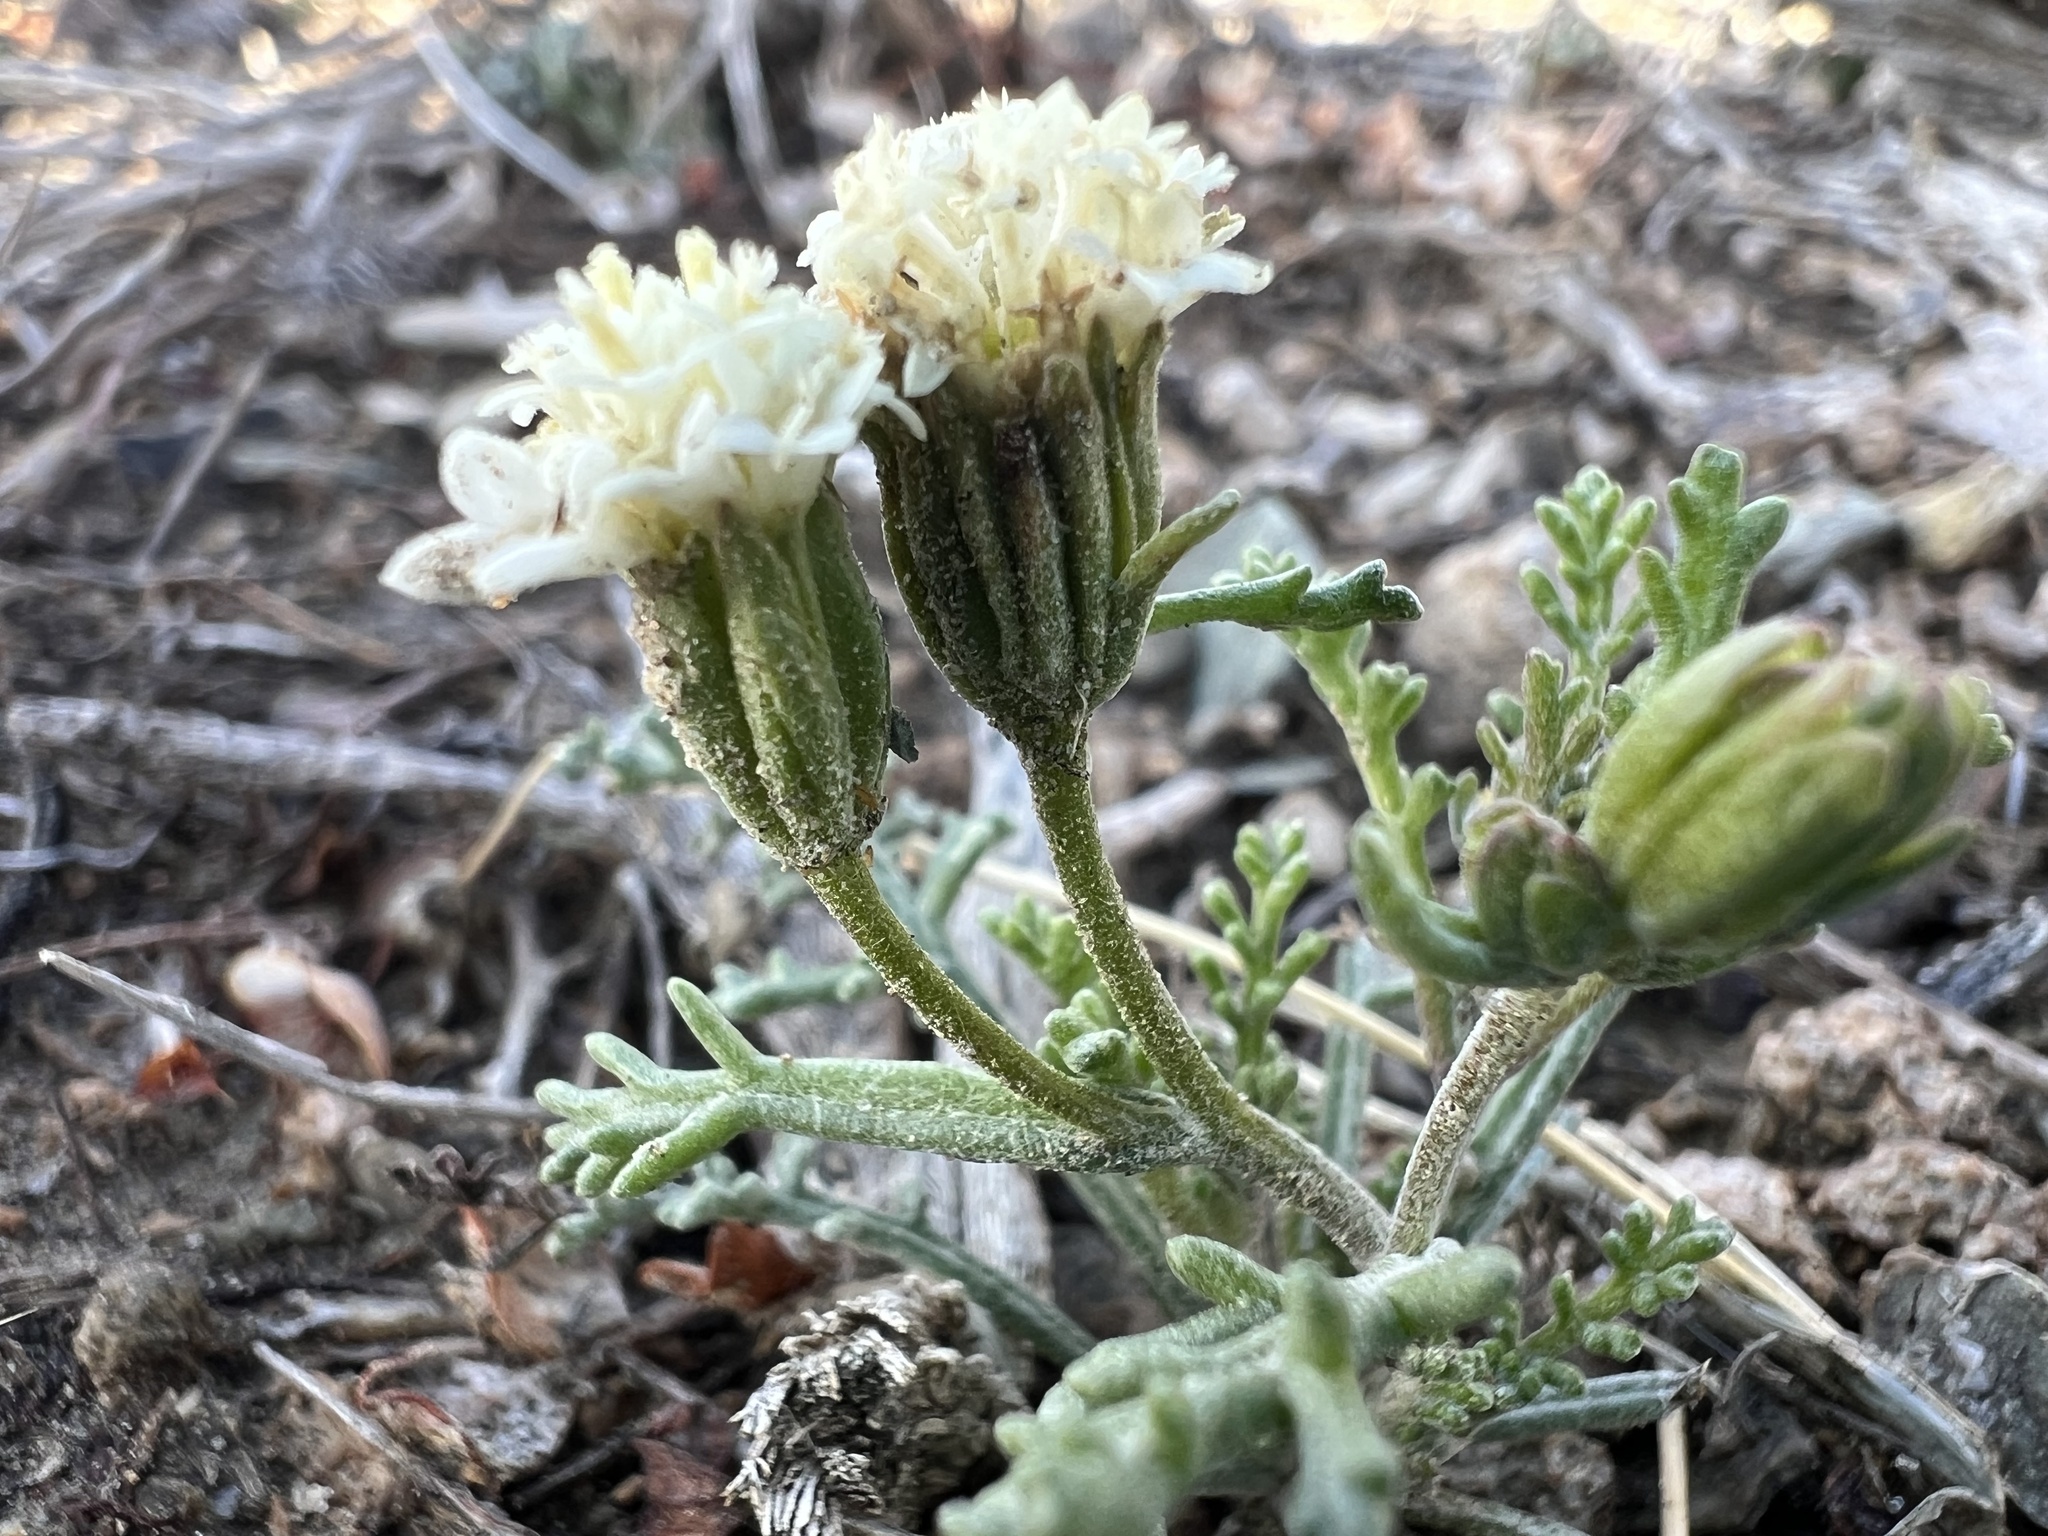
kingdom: Plantae
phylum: Tracheophyta
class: Magnoliopsida
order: Asterales
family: Asteraceae
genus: Chaenactis
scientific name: Chaenactis stevioides
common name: Desert pincushion
